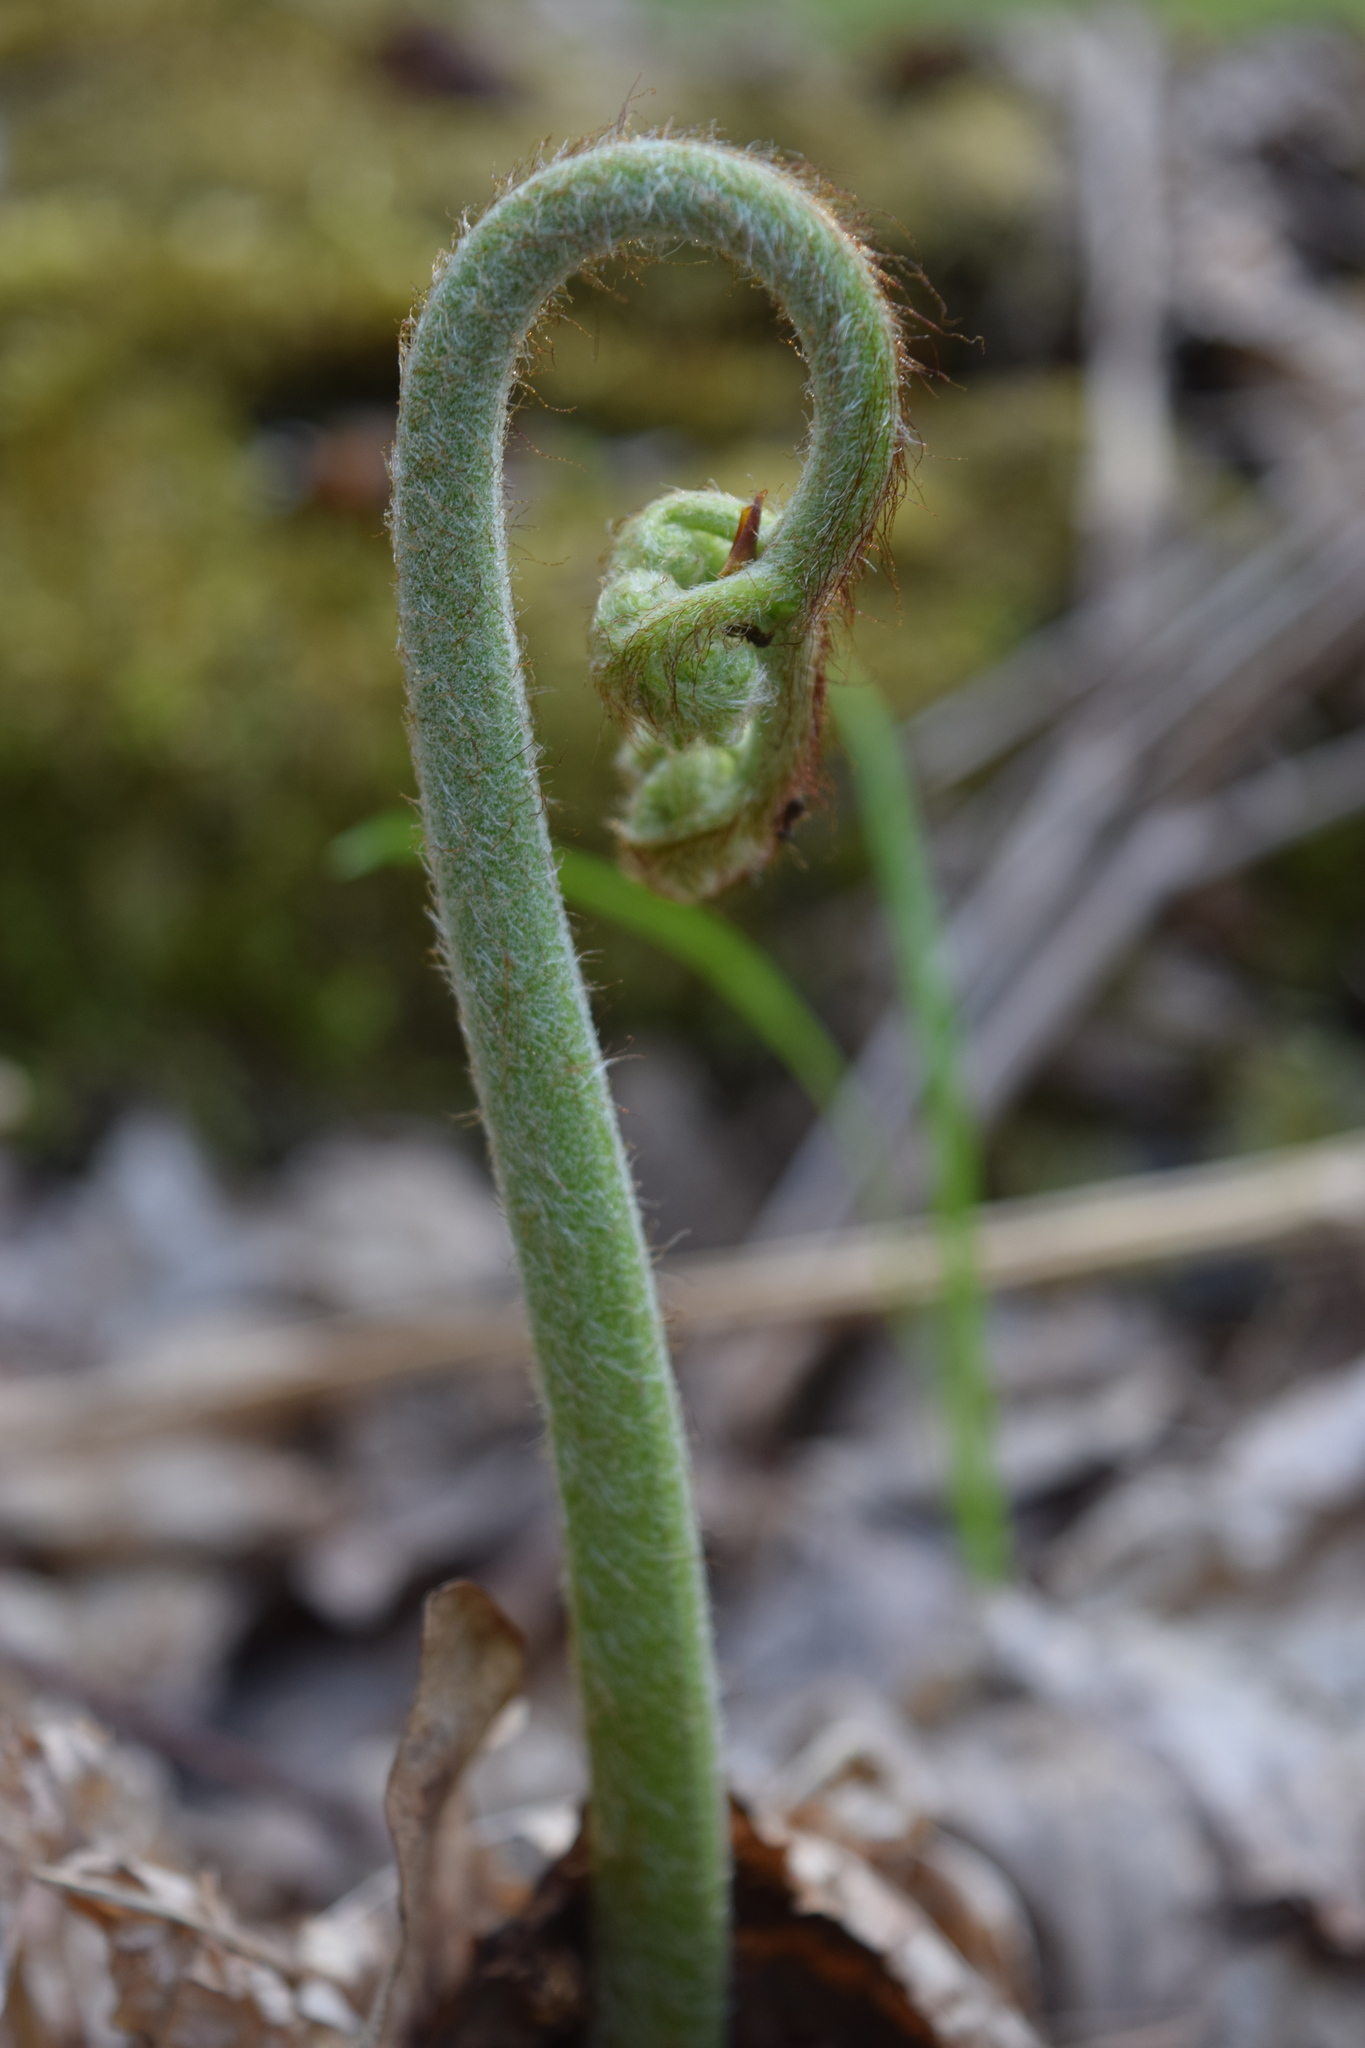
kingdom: Plantae
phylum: Tracheophyta
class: Polypodiopsida
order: Polypodiales
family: Dennstaedtiaceae
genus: Pteridium
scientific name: Pteridium aquilinum
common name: Bracken
